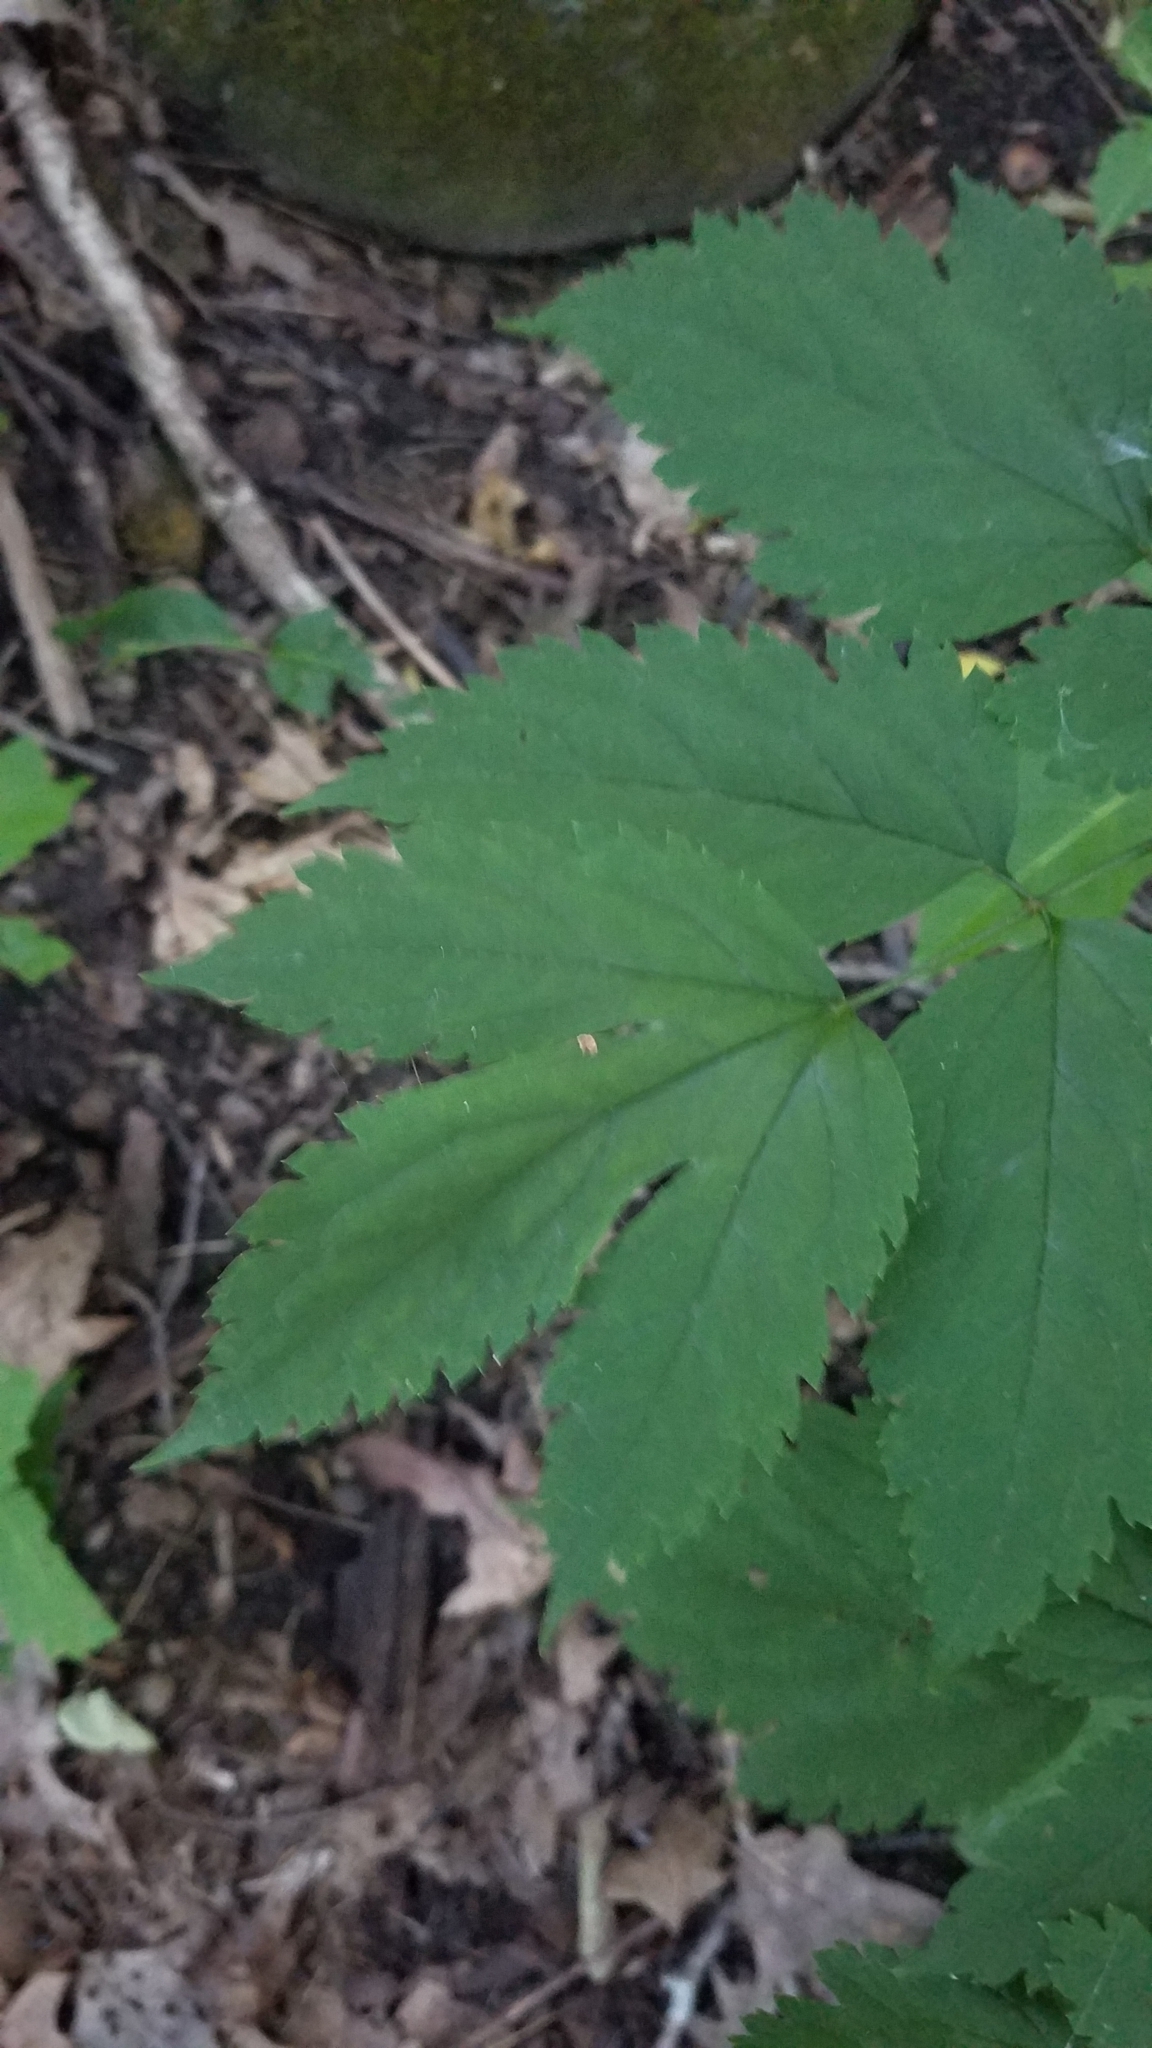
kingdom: Plantae
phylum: Tracheophyta
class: Magnoliopsida
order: Ranunculales
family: Ranunculaceae
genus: Actaea
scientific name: Actaea pachypoda
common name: Doll's-eyes
